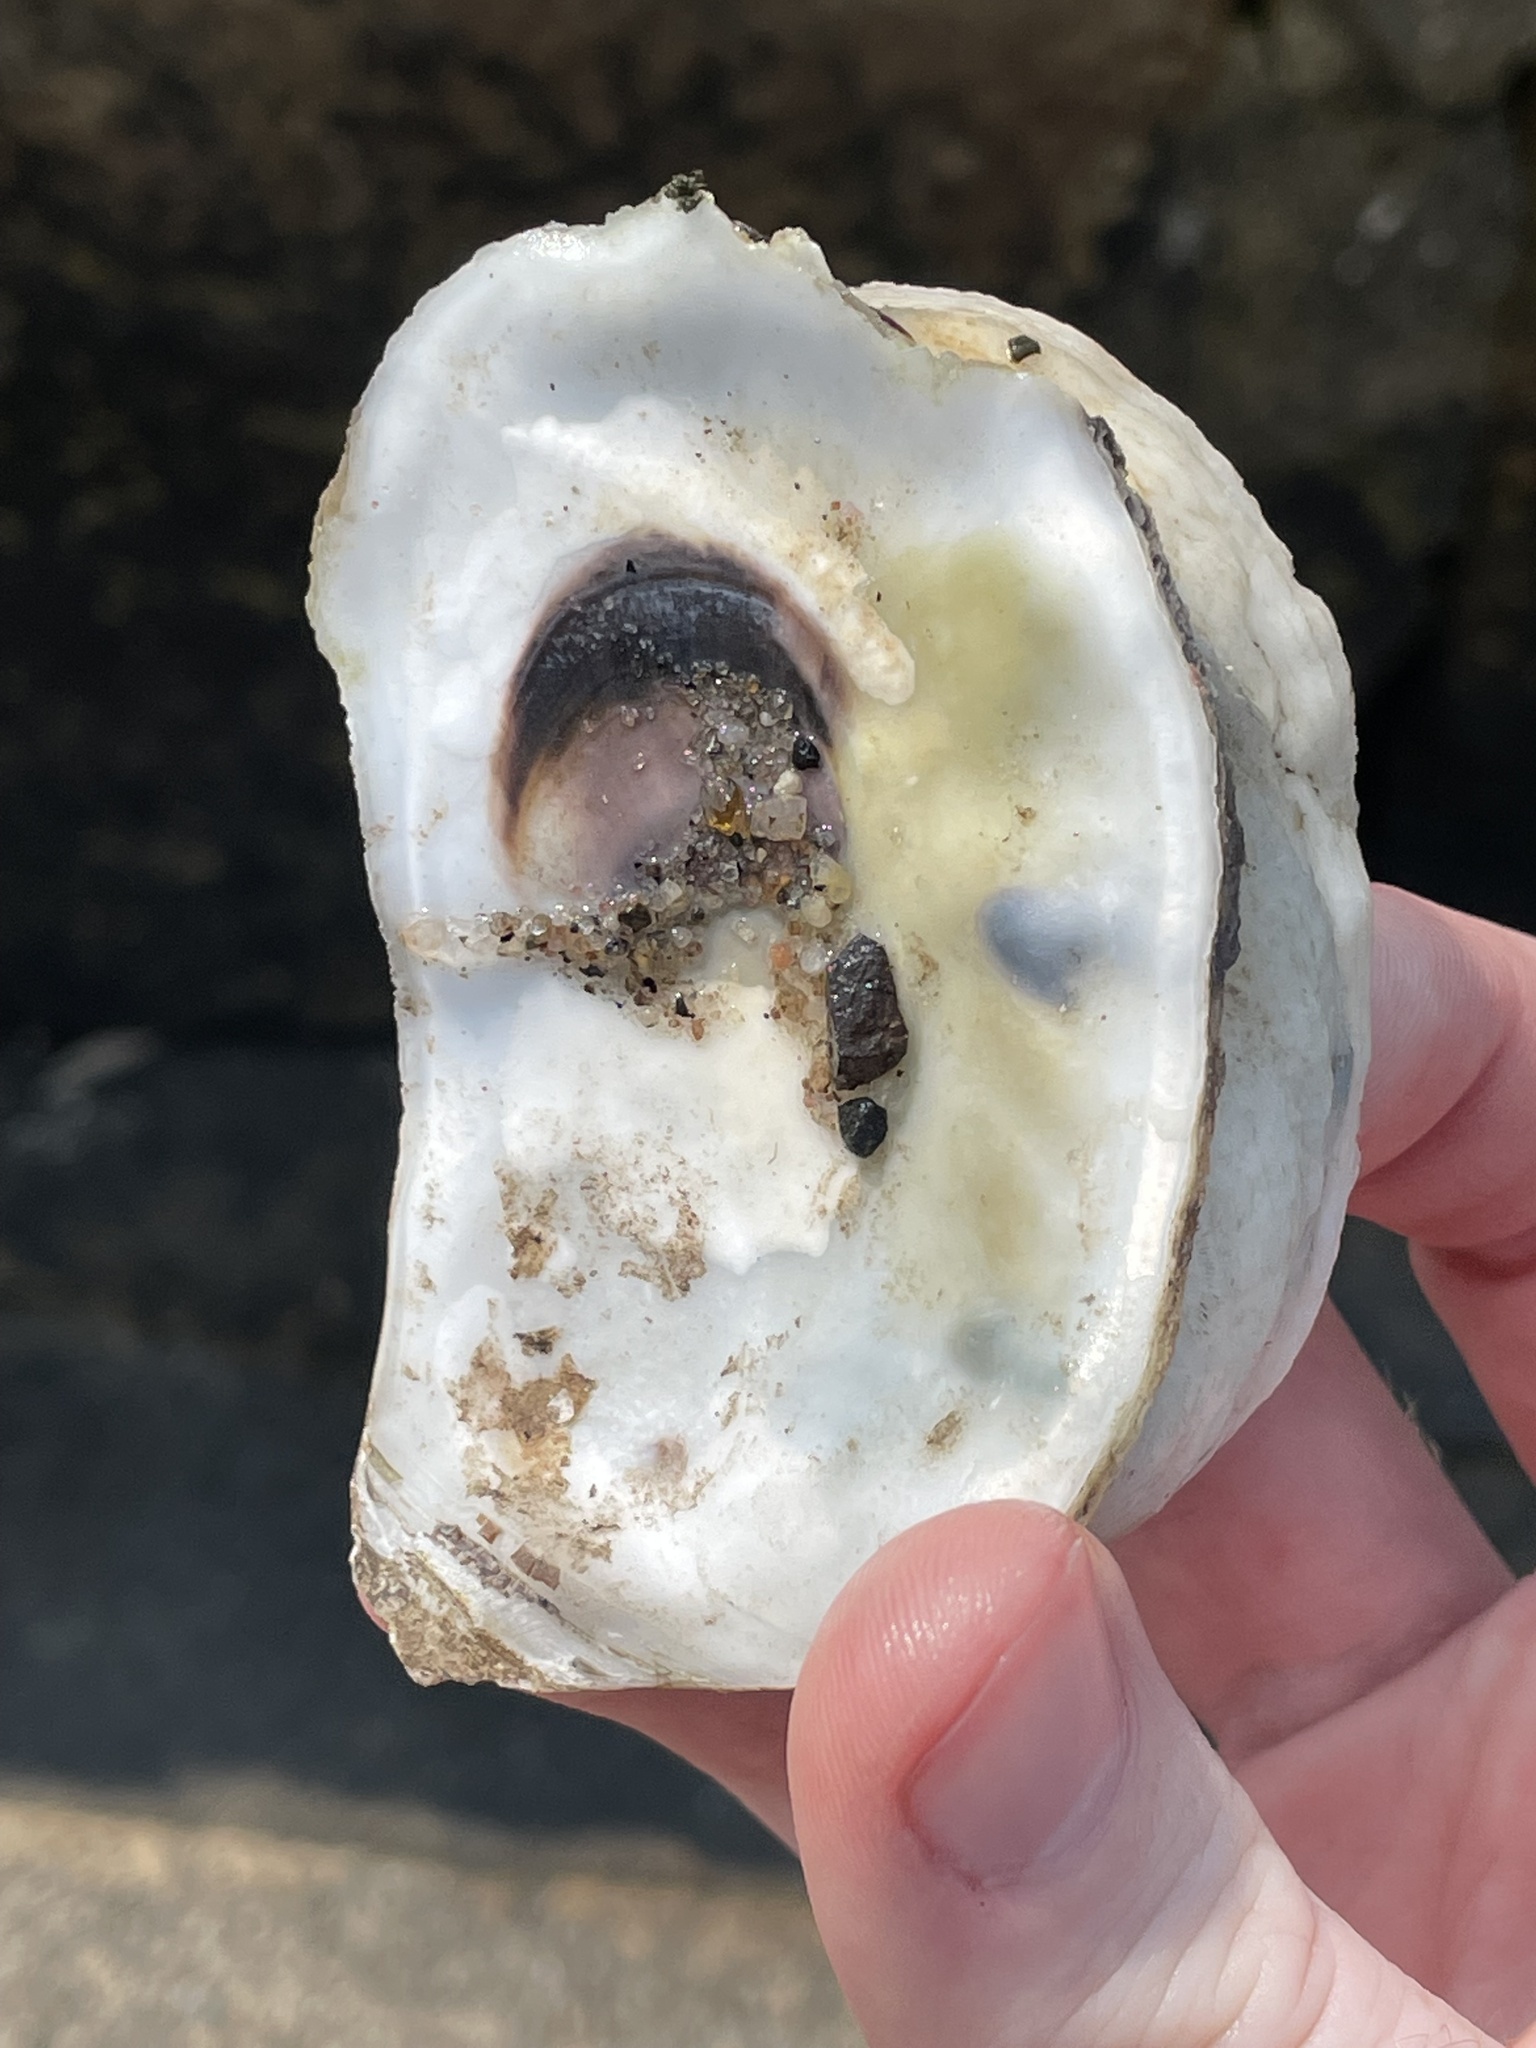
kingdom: Animalia
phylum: Mollusca
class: Bivalvia
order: Ostreida
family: Ostreidae
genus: Crassostrea
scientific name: Crassostrea virginica
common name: American oyster
